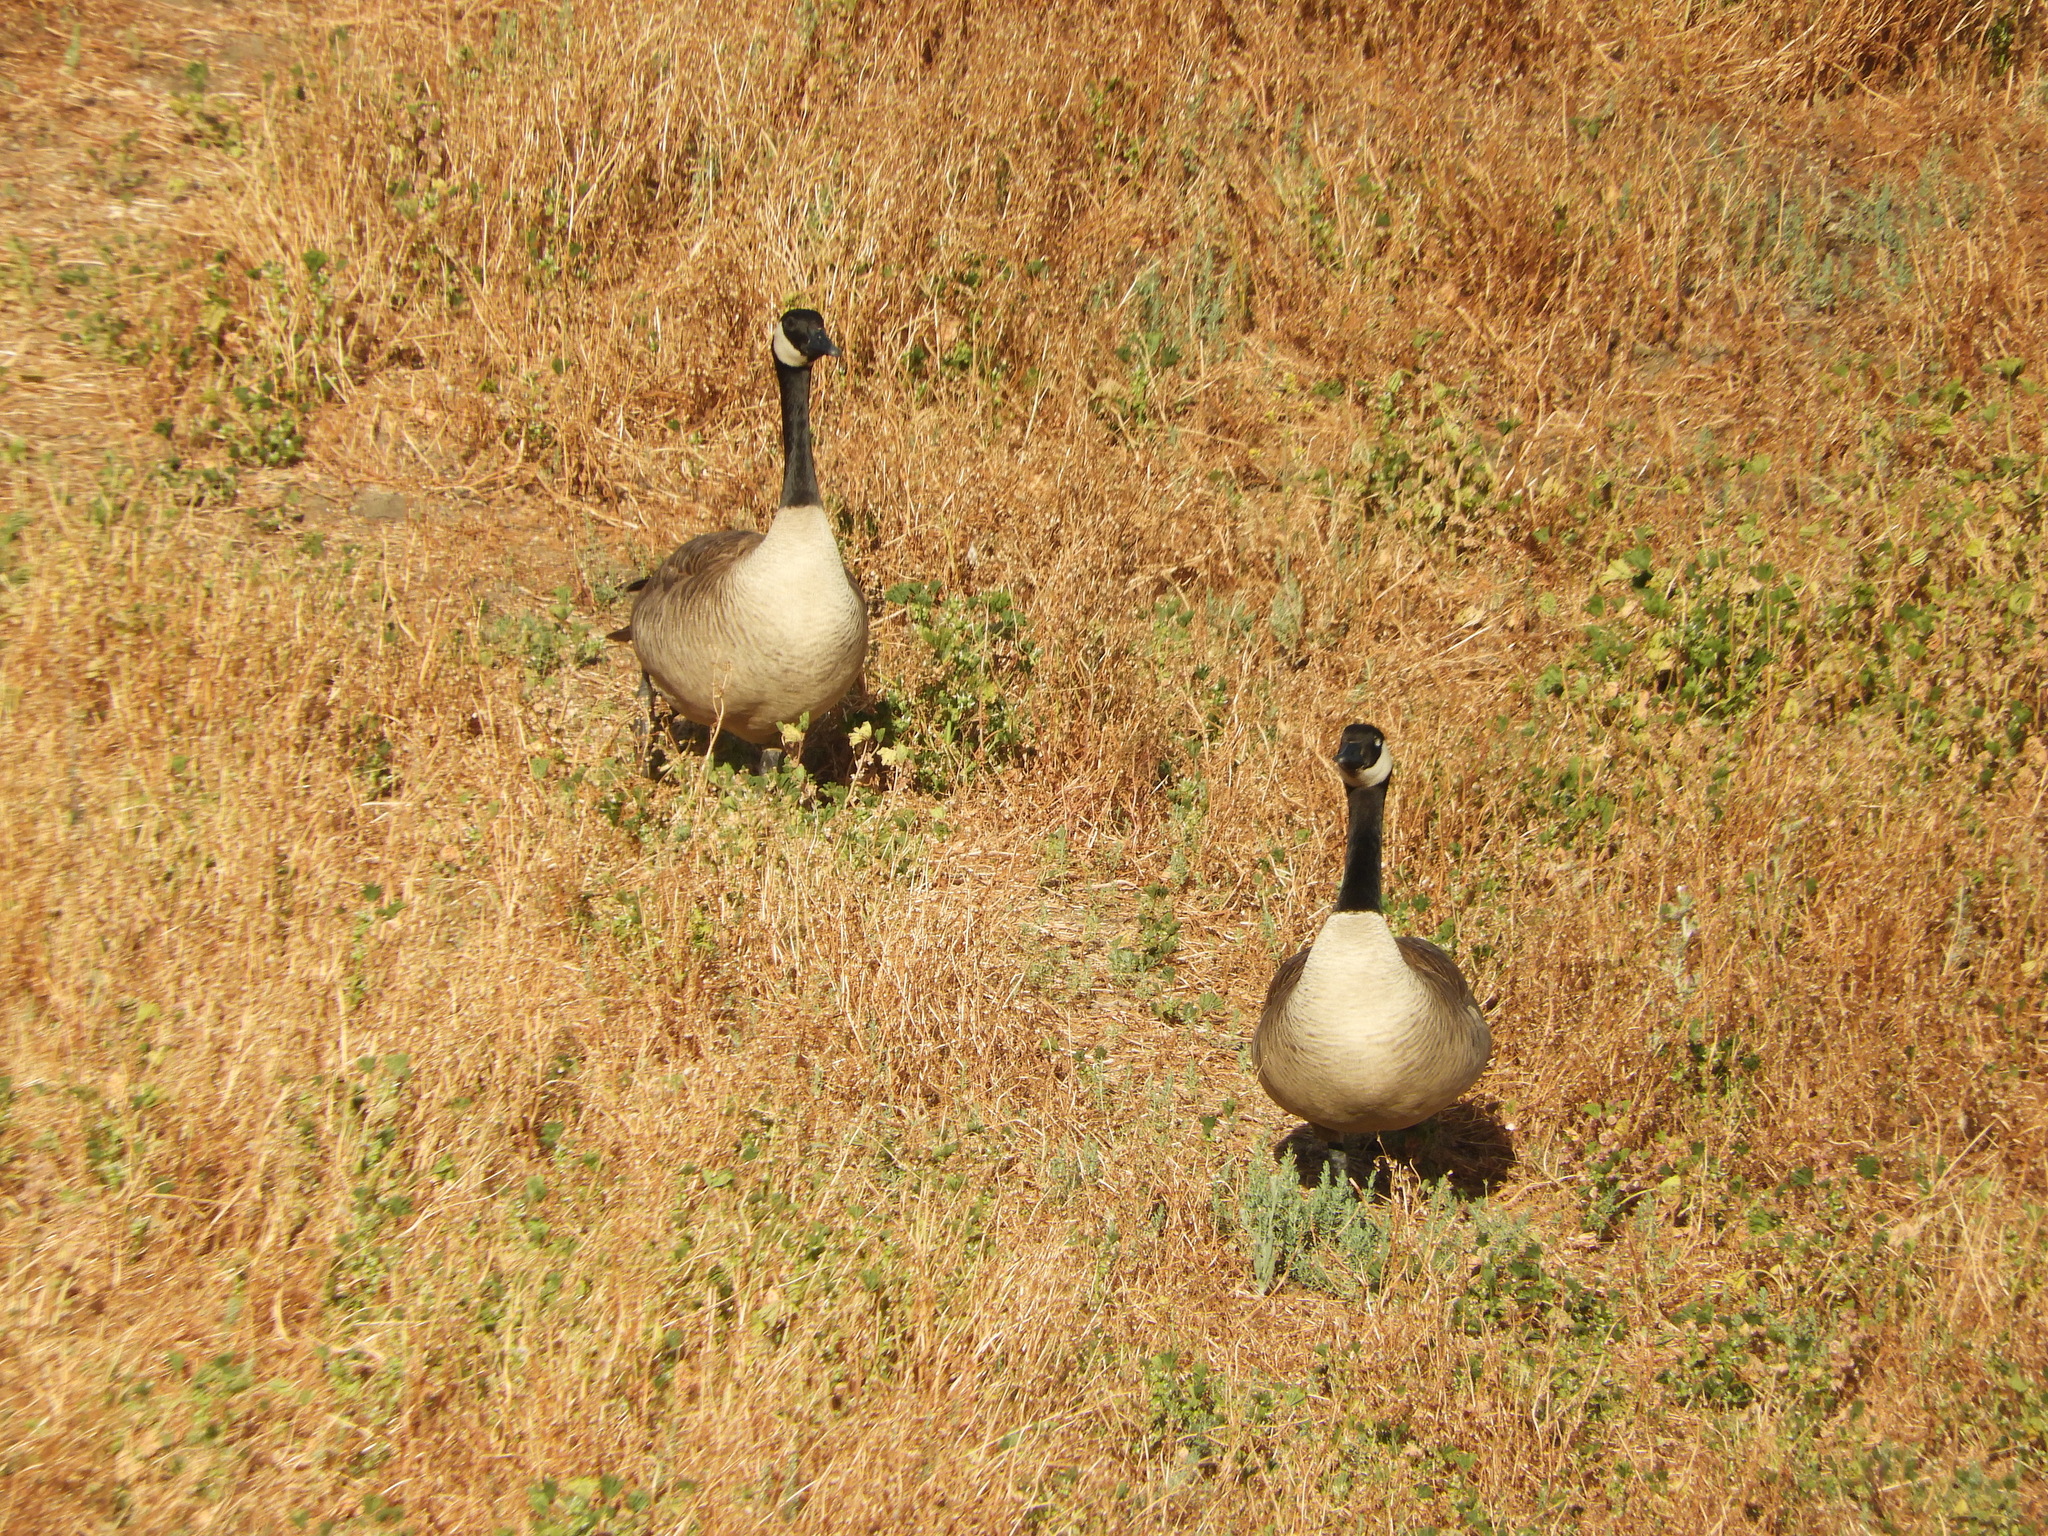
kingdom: Animalia
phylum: Chordata
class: Aves
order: Anseriformes
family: Anatidae
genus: Branta
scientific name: Branta canadensis
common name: Canada goose
